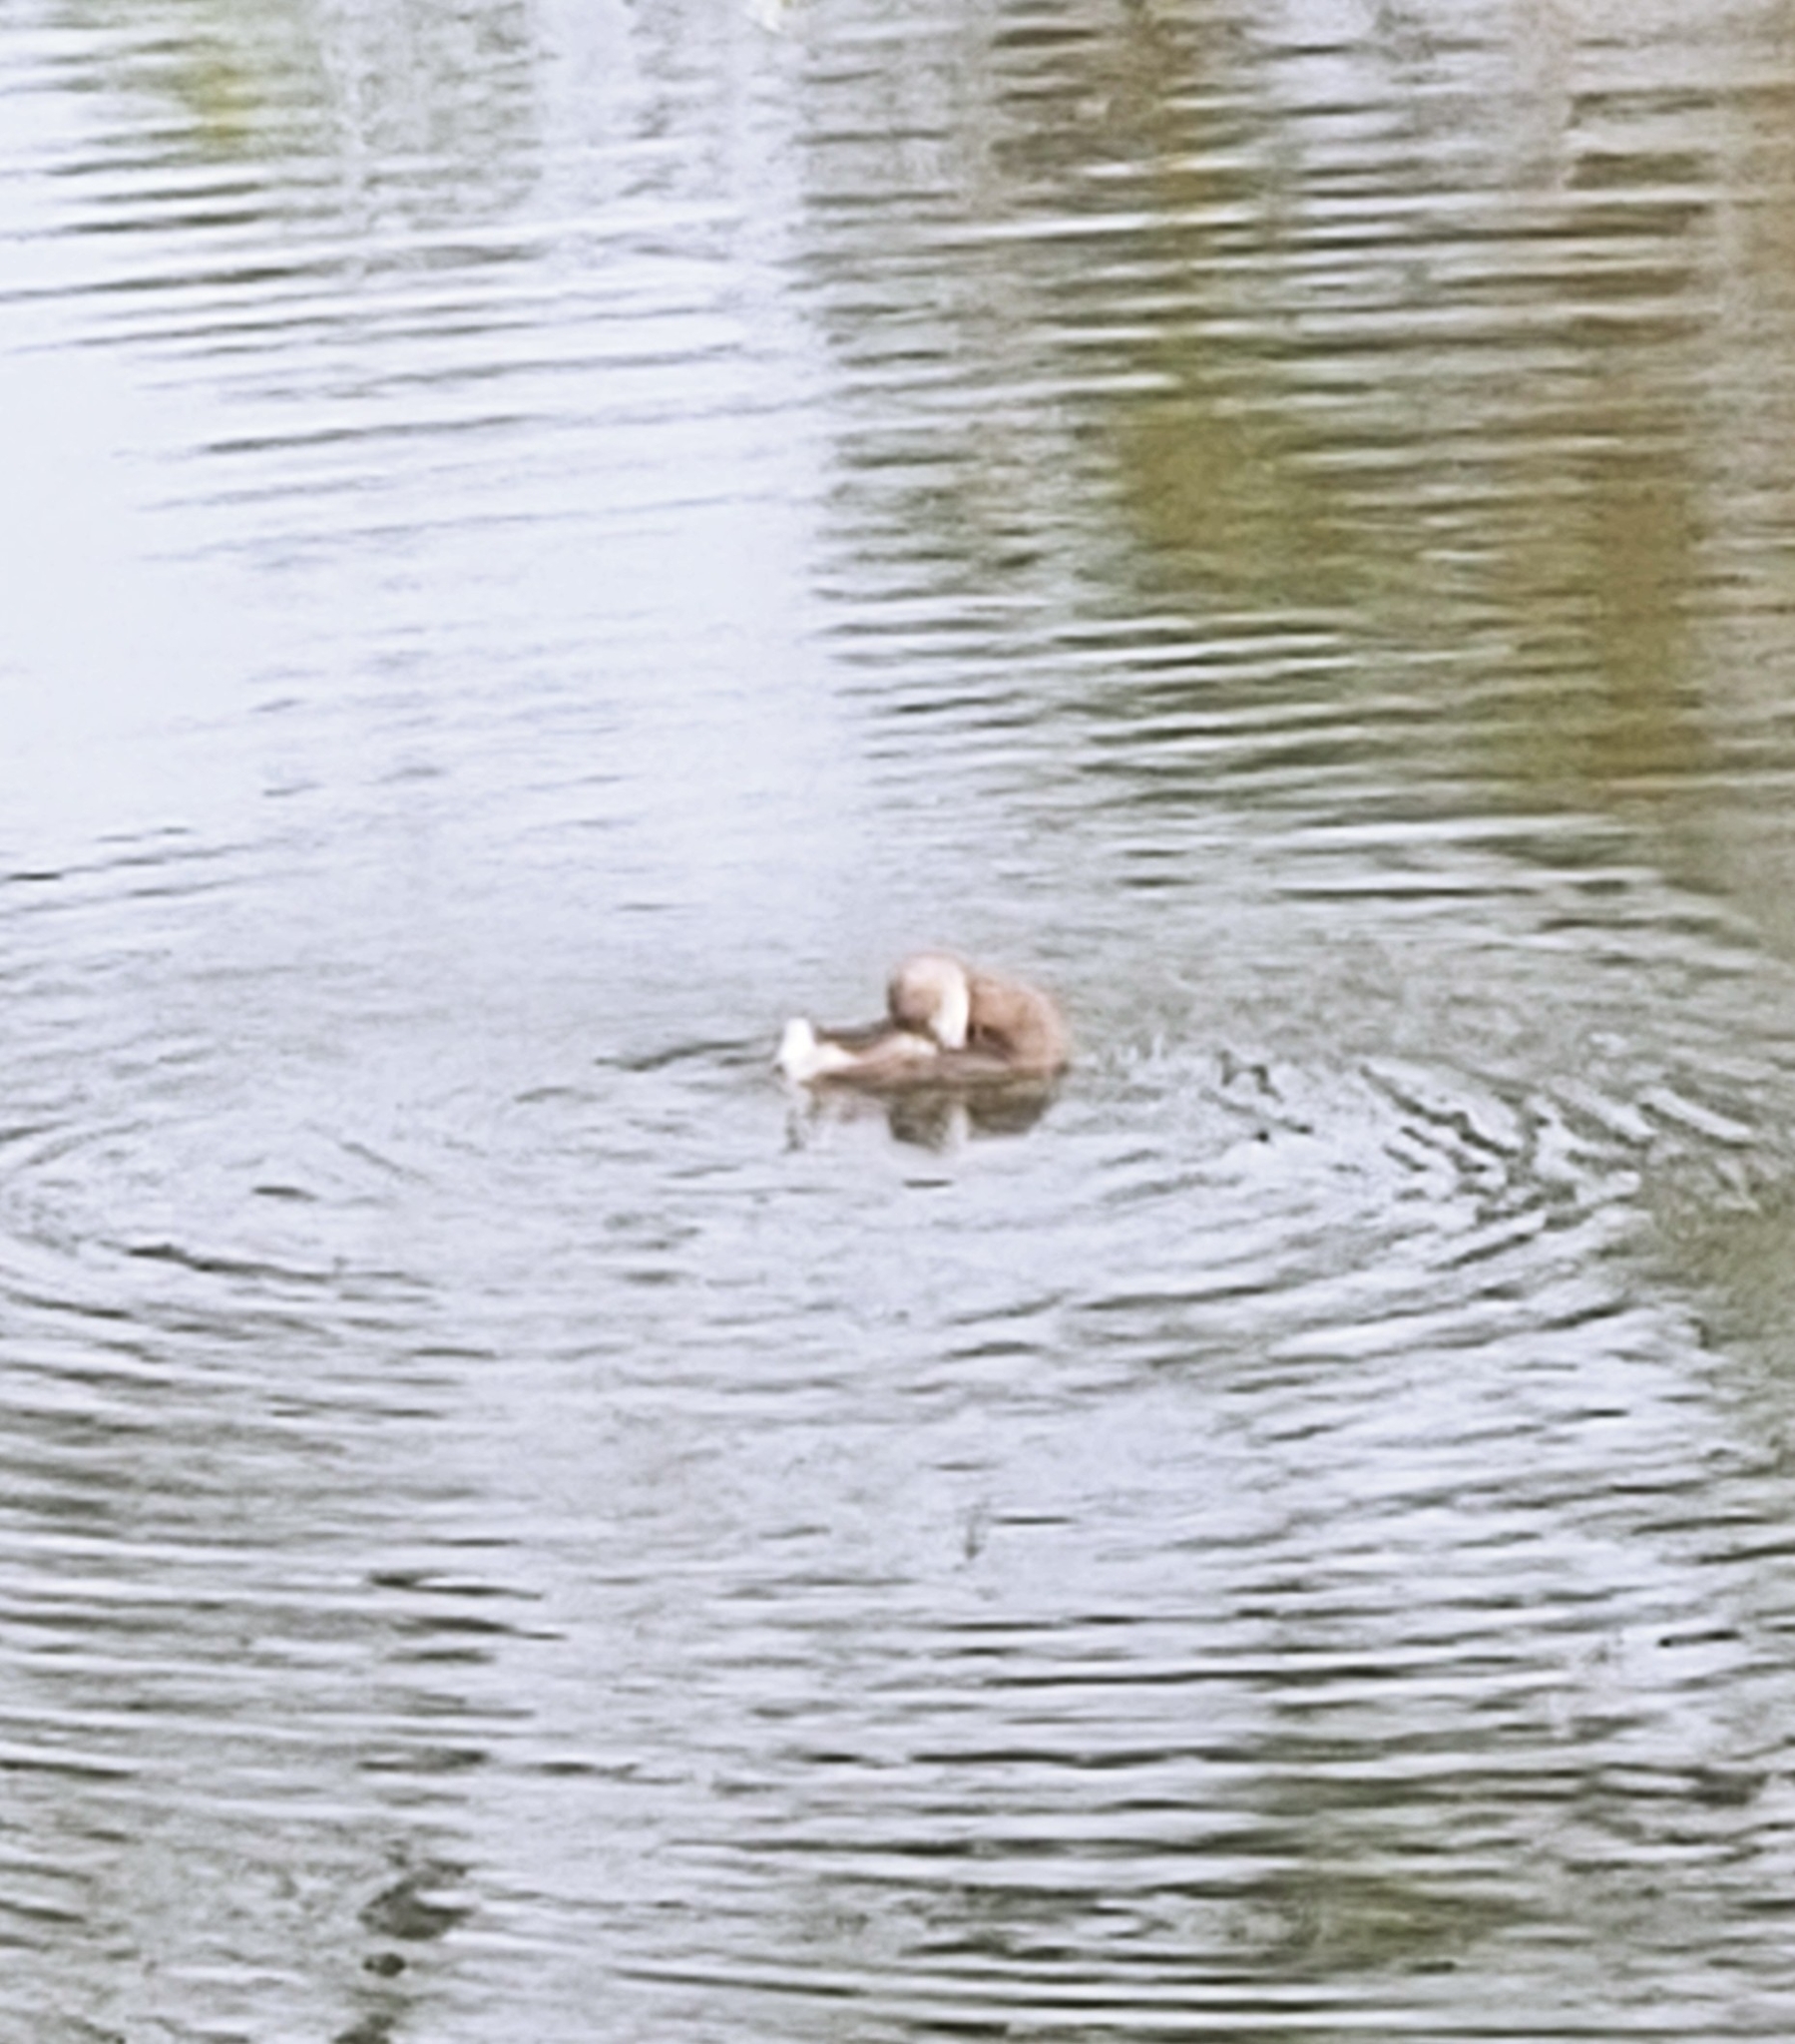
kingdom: Animalia
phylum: Chordata
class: Aves
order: Podicipediformes
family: Podicipedidae
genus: Podilymbus
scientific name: Podilymbus podiceps
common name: Pied-billed grebe
